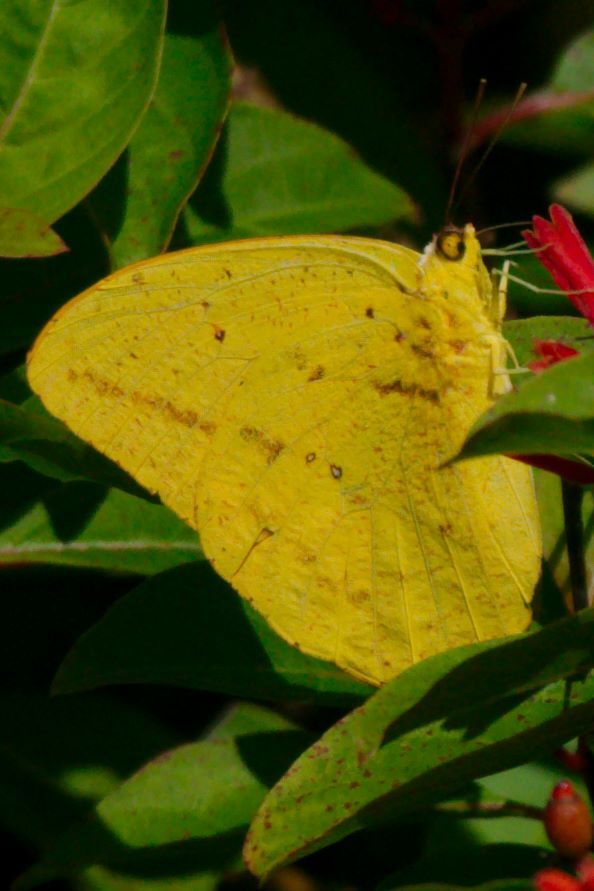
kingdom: Animalia
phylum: Arthropoda
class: Insecta
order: Lepidoptera
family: Pieridae
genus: Phoebis
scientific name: Phoebis agarithe
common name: Large orange sulphur
